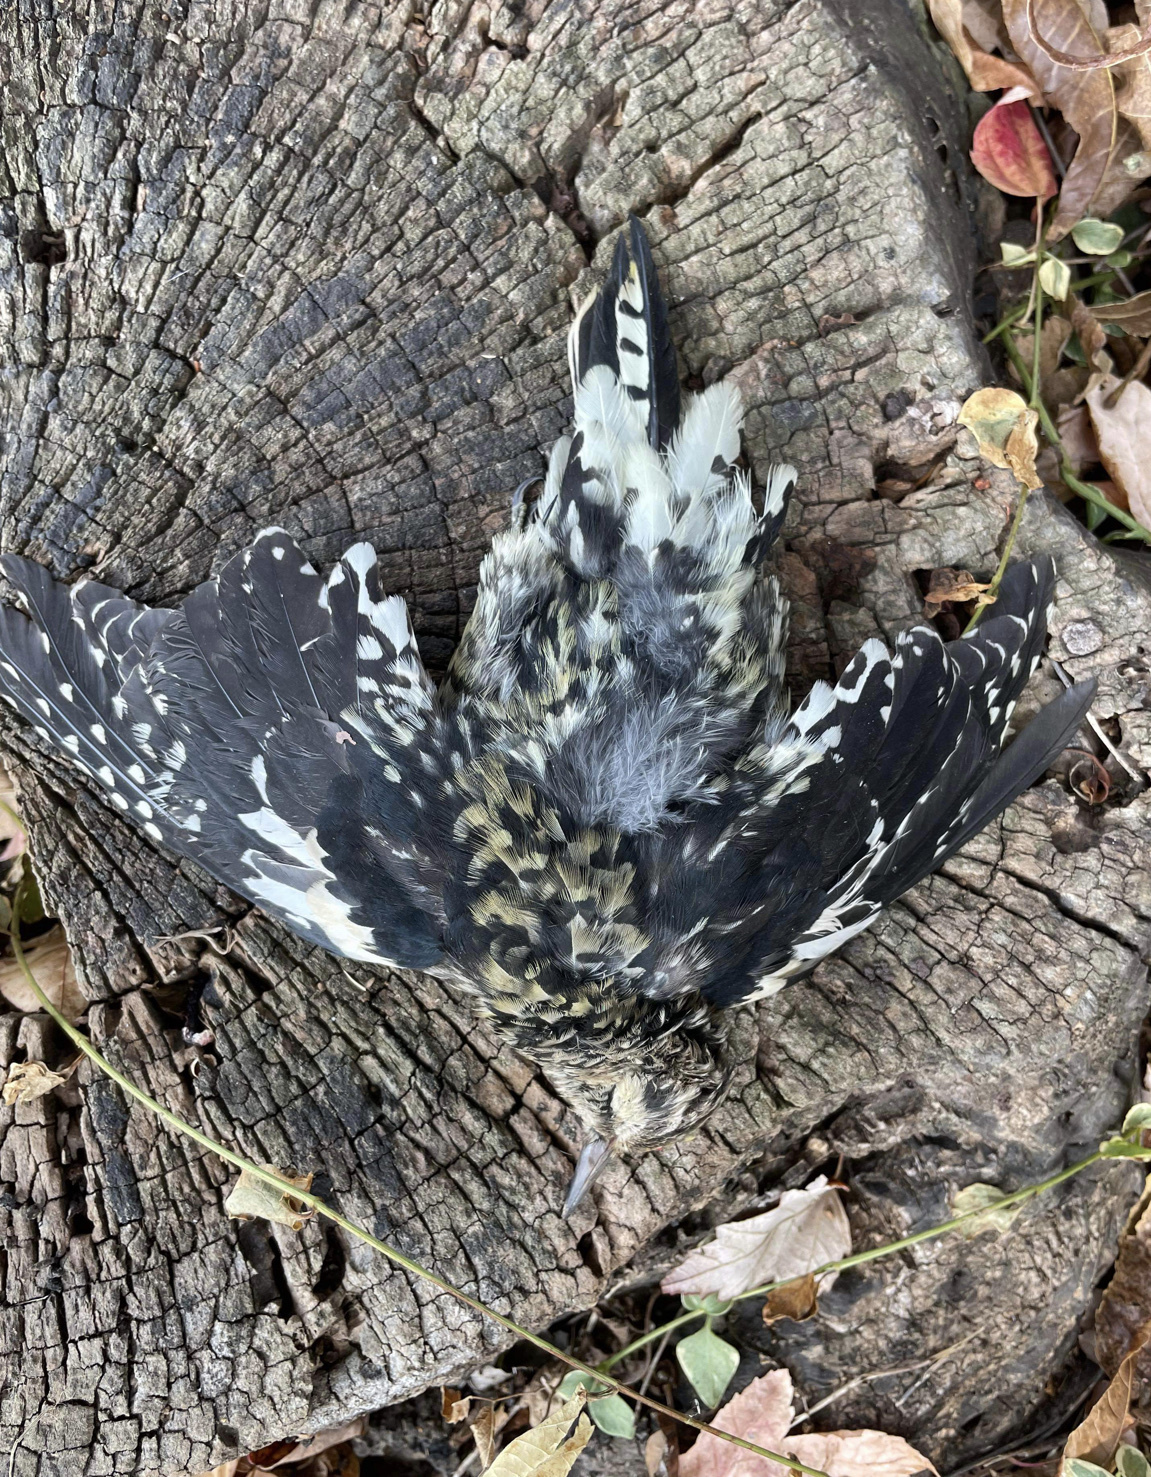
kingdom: Animalia
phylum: Chordata
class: Aves
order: Piciformes
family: Picidae
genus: Sphyrapicus
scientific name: Sphyrapicus varius
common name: Yellow-bellied sapsucker
